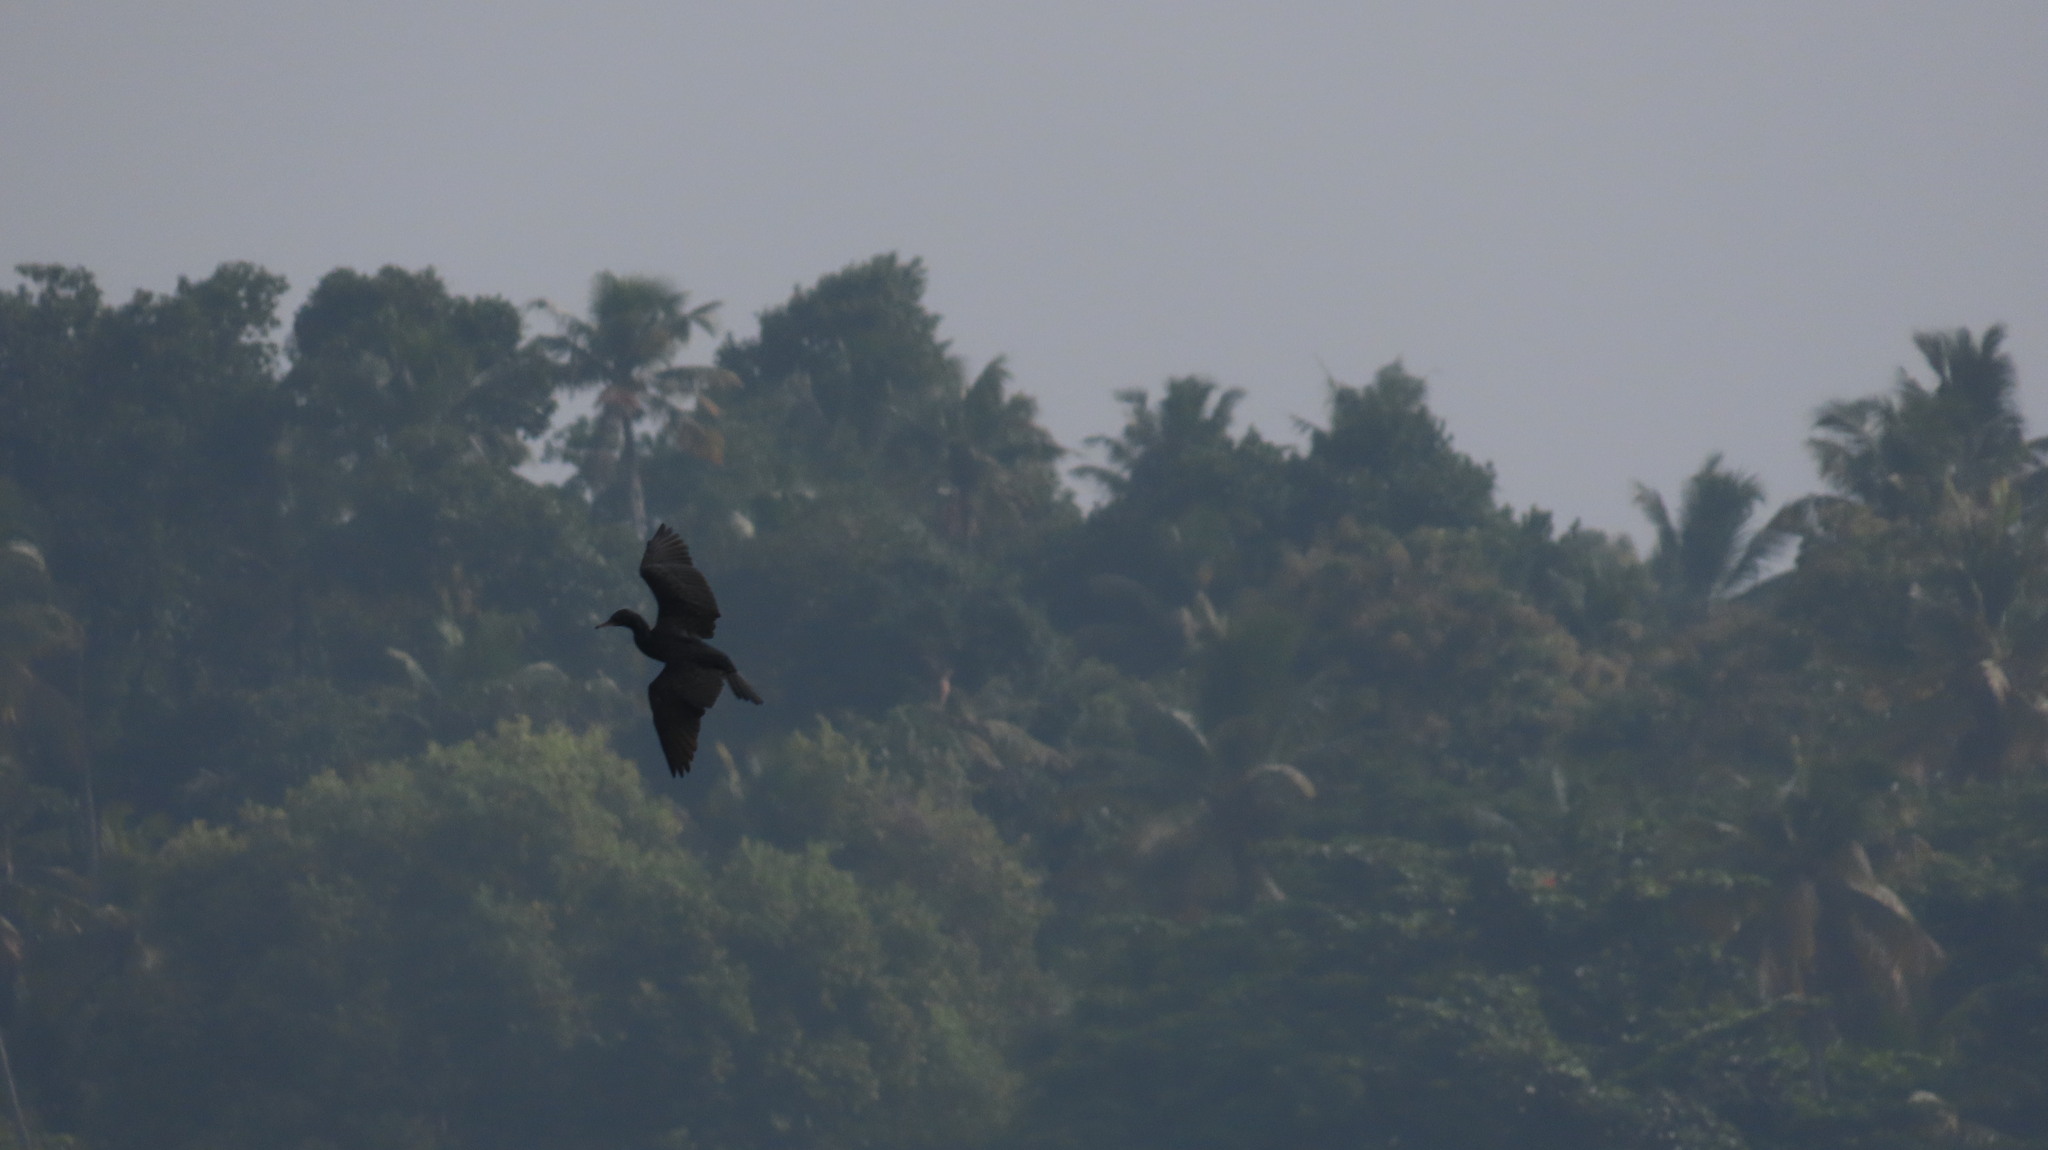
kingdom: Animalia
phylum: Chordata
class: Aves
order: Suliformes
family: Phalacrocoracidae
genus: Microcarbo
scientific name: Microcarbo niger
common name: Little cormorant
